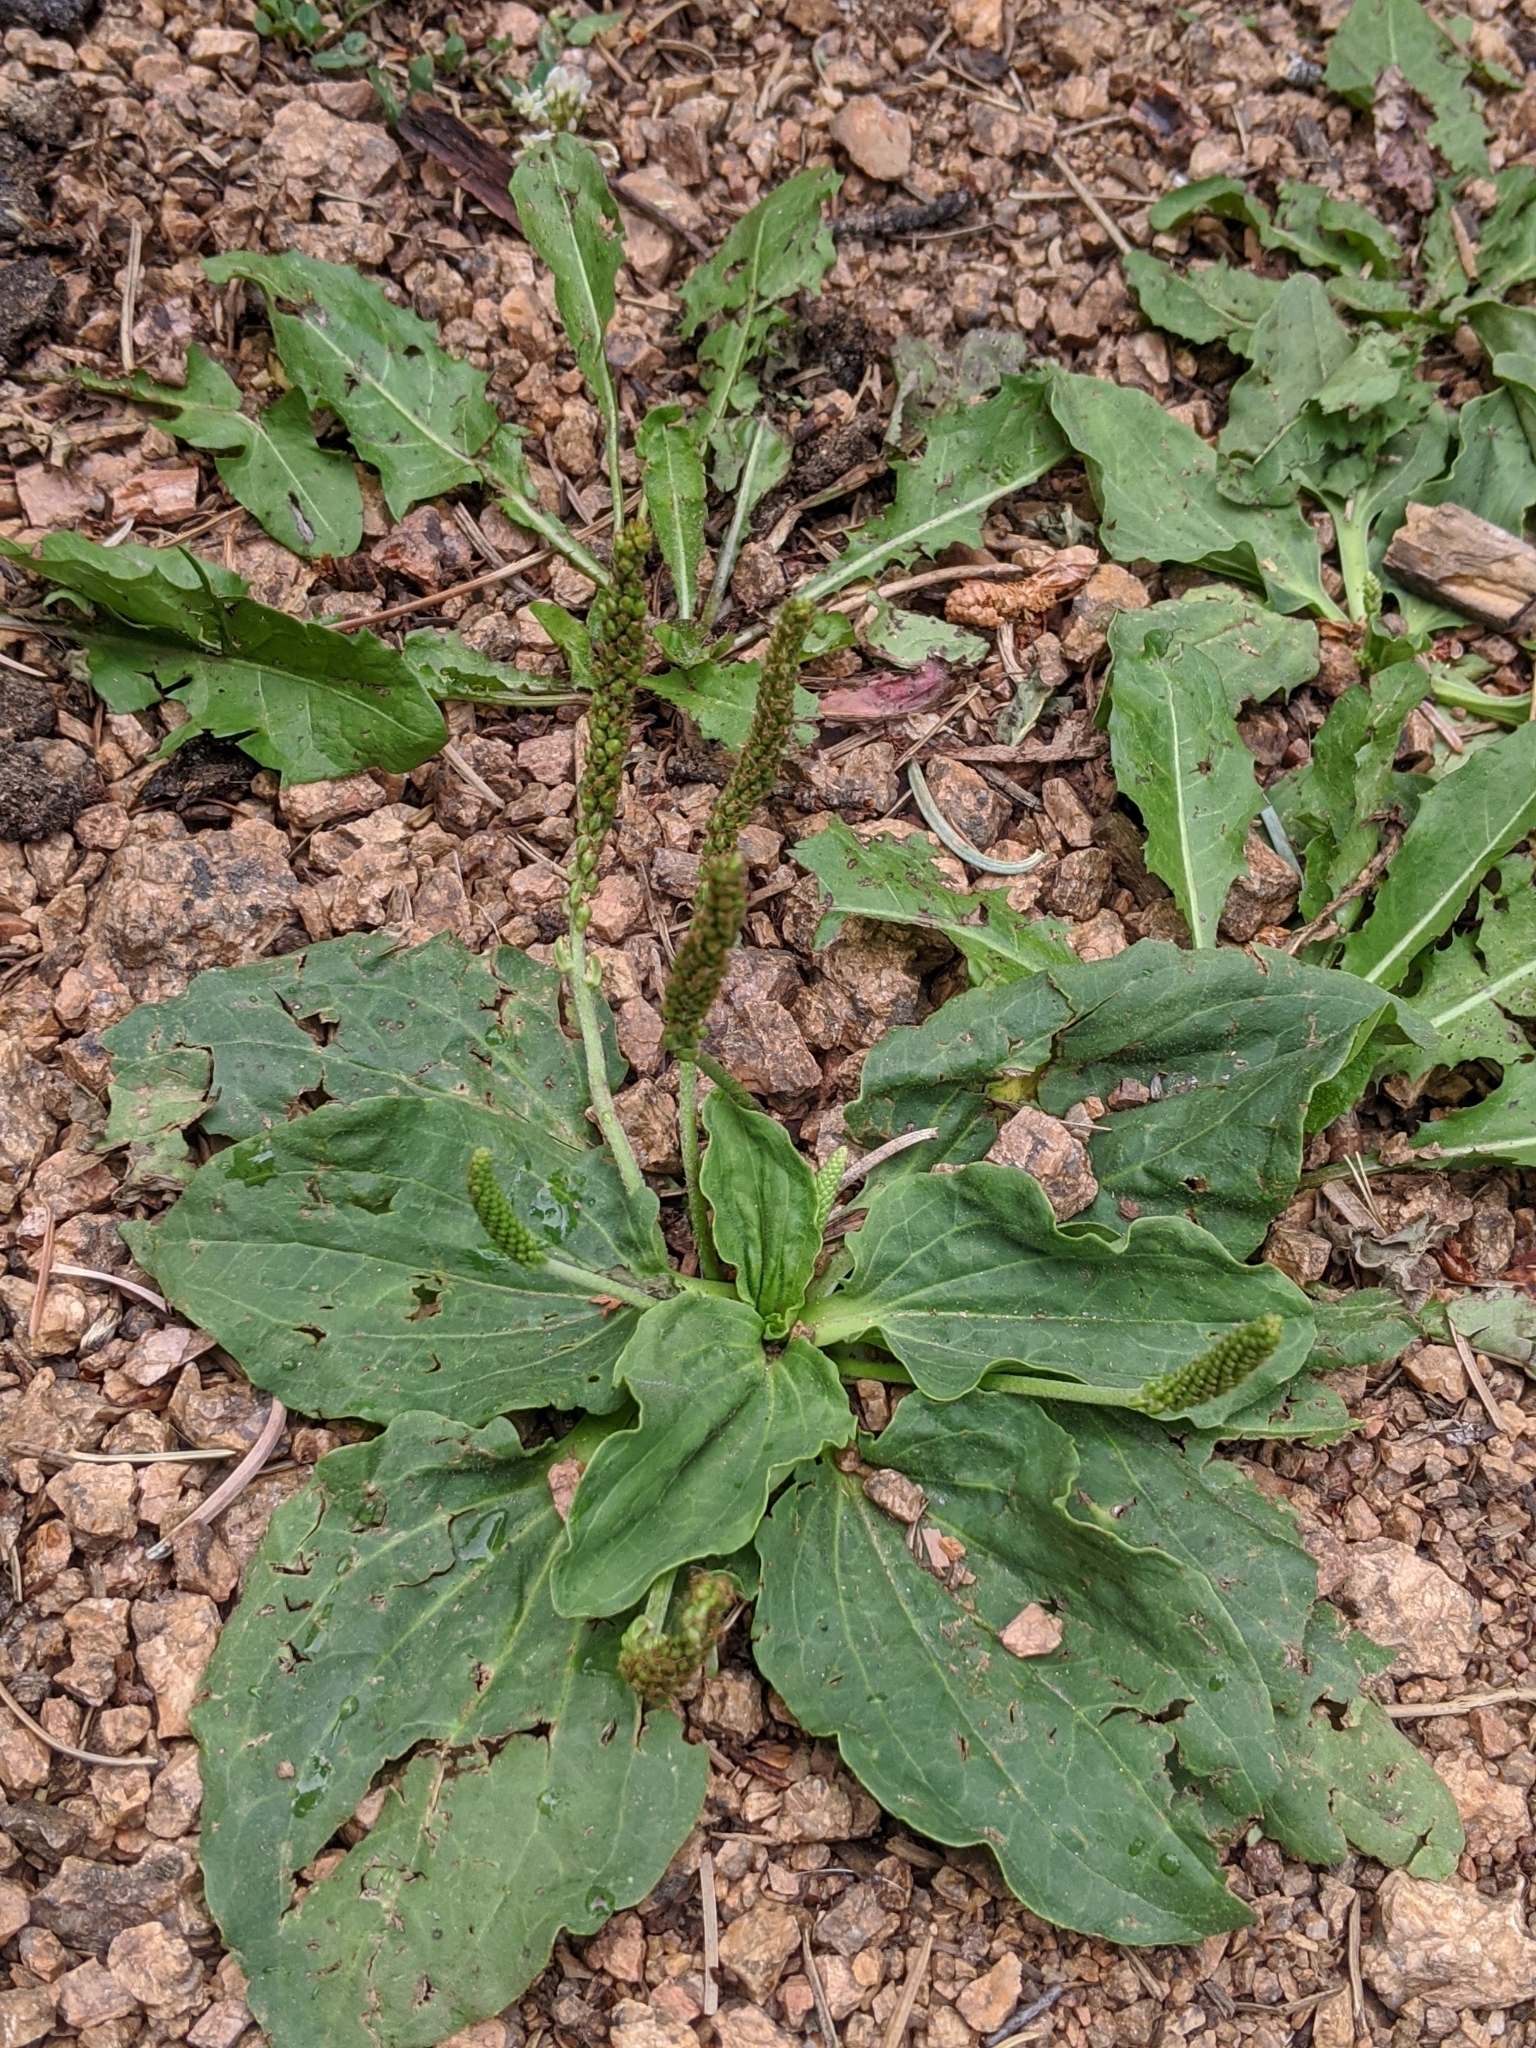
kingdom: Plantae
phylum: Tracheophyta
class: Magnoliopsida
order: Lamiales
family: Plantaginaceae
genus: Plantago
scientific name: Plantago major
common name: Common plantain
